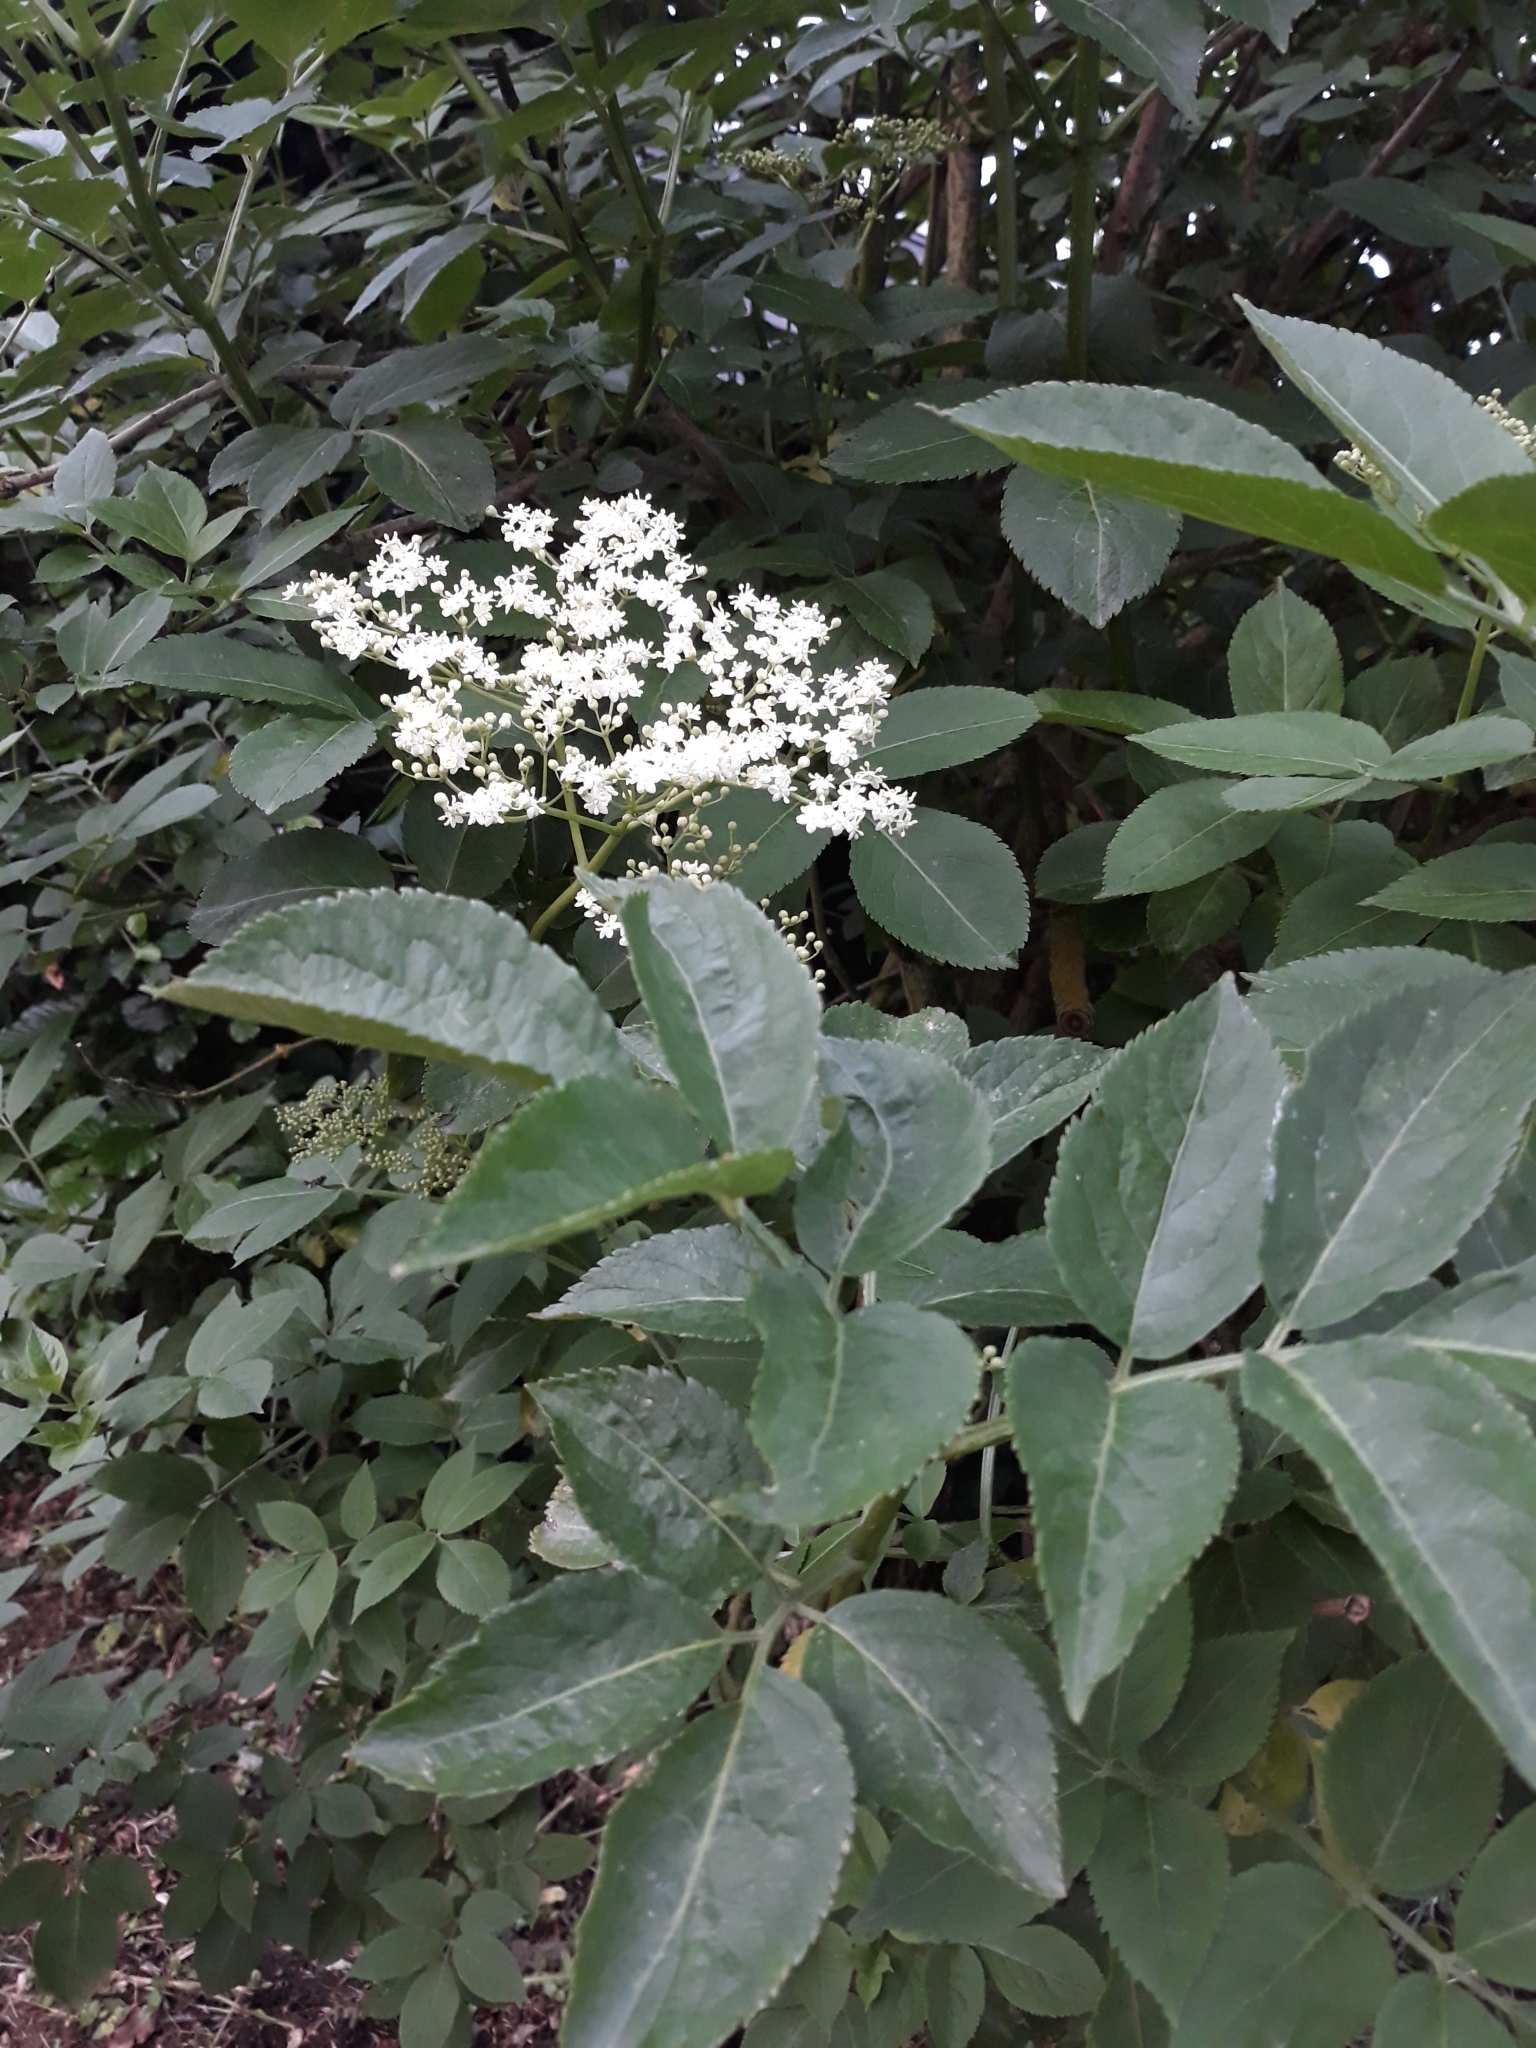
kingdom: Plantae
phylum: Tracheophyta
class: Magnoliopsida
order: Dipsacales
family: Viburnaceae
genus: Sambucus
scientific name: Sambucus nigra
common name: Elder
